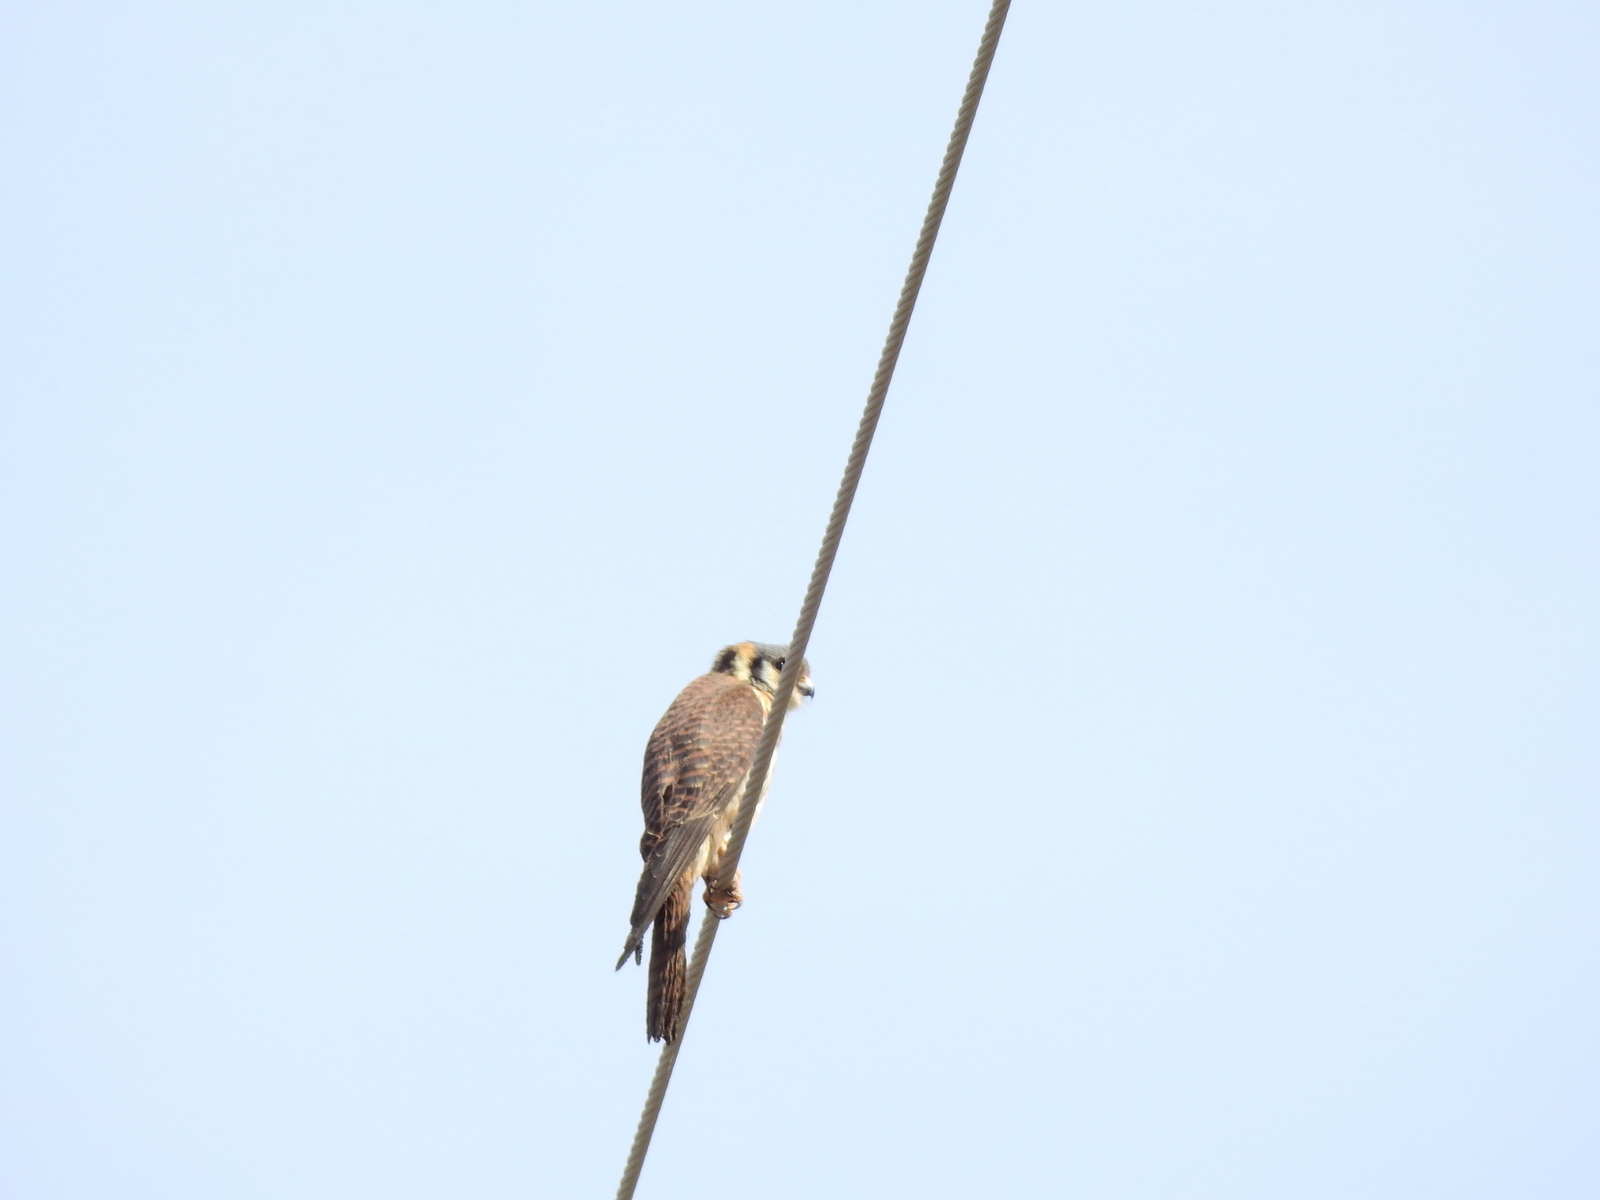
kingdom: Animalia
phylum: Chordata
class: Aves
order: Falconiformes
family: Falconidae
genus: Falco
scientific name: Falco sparverius
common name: American kestrel
